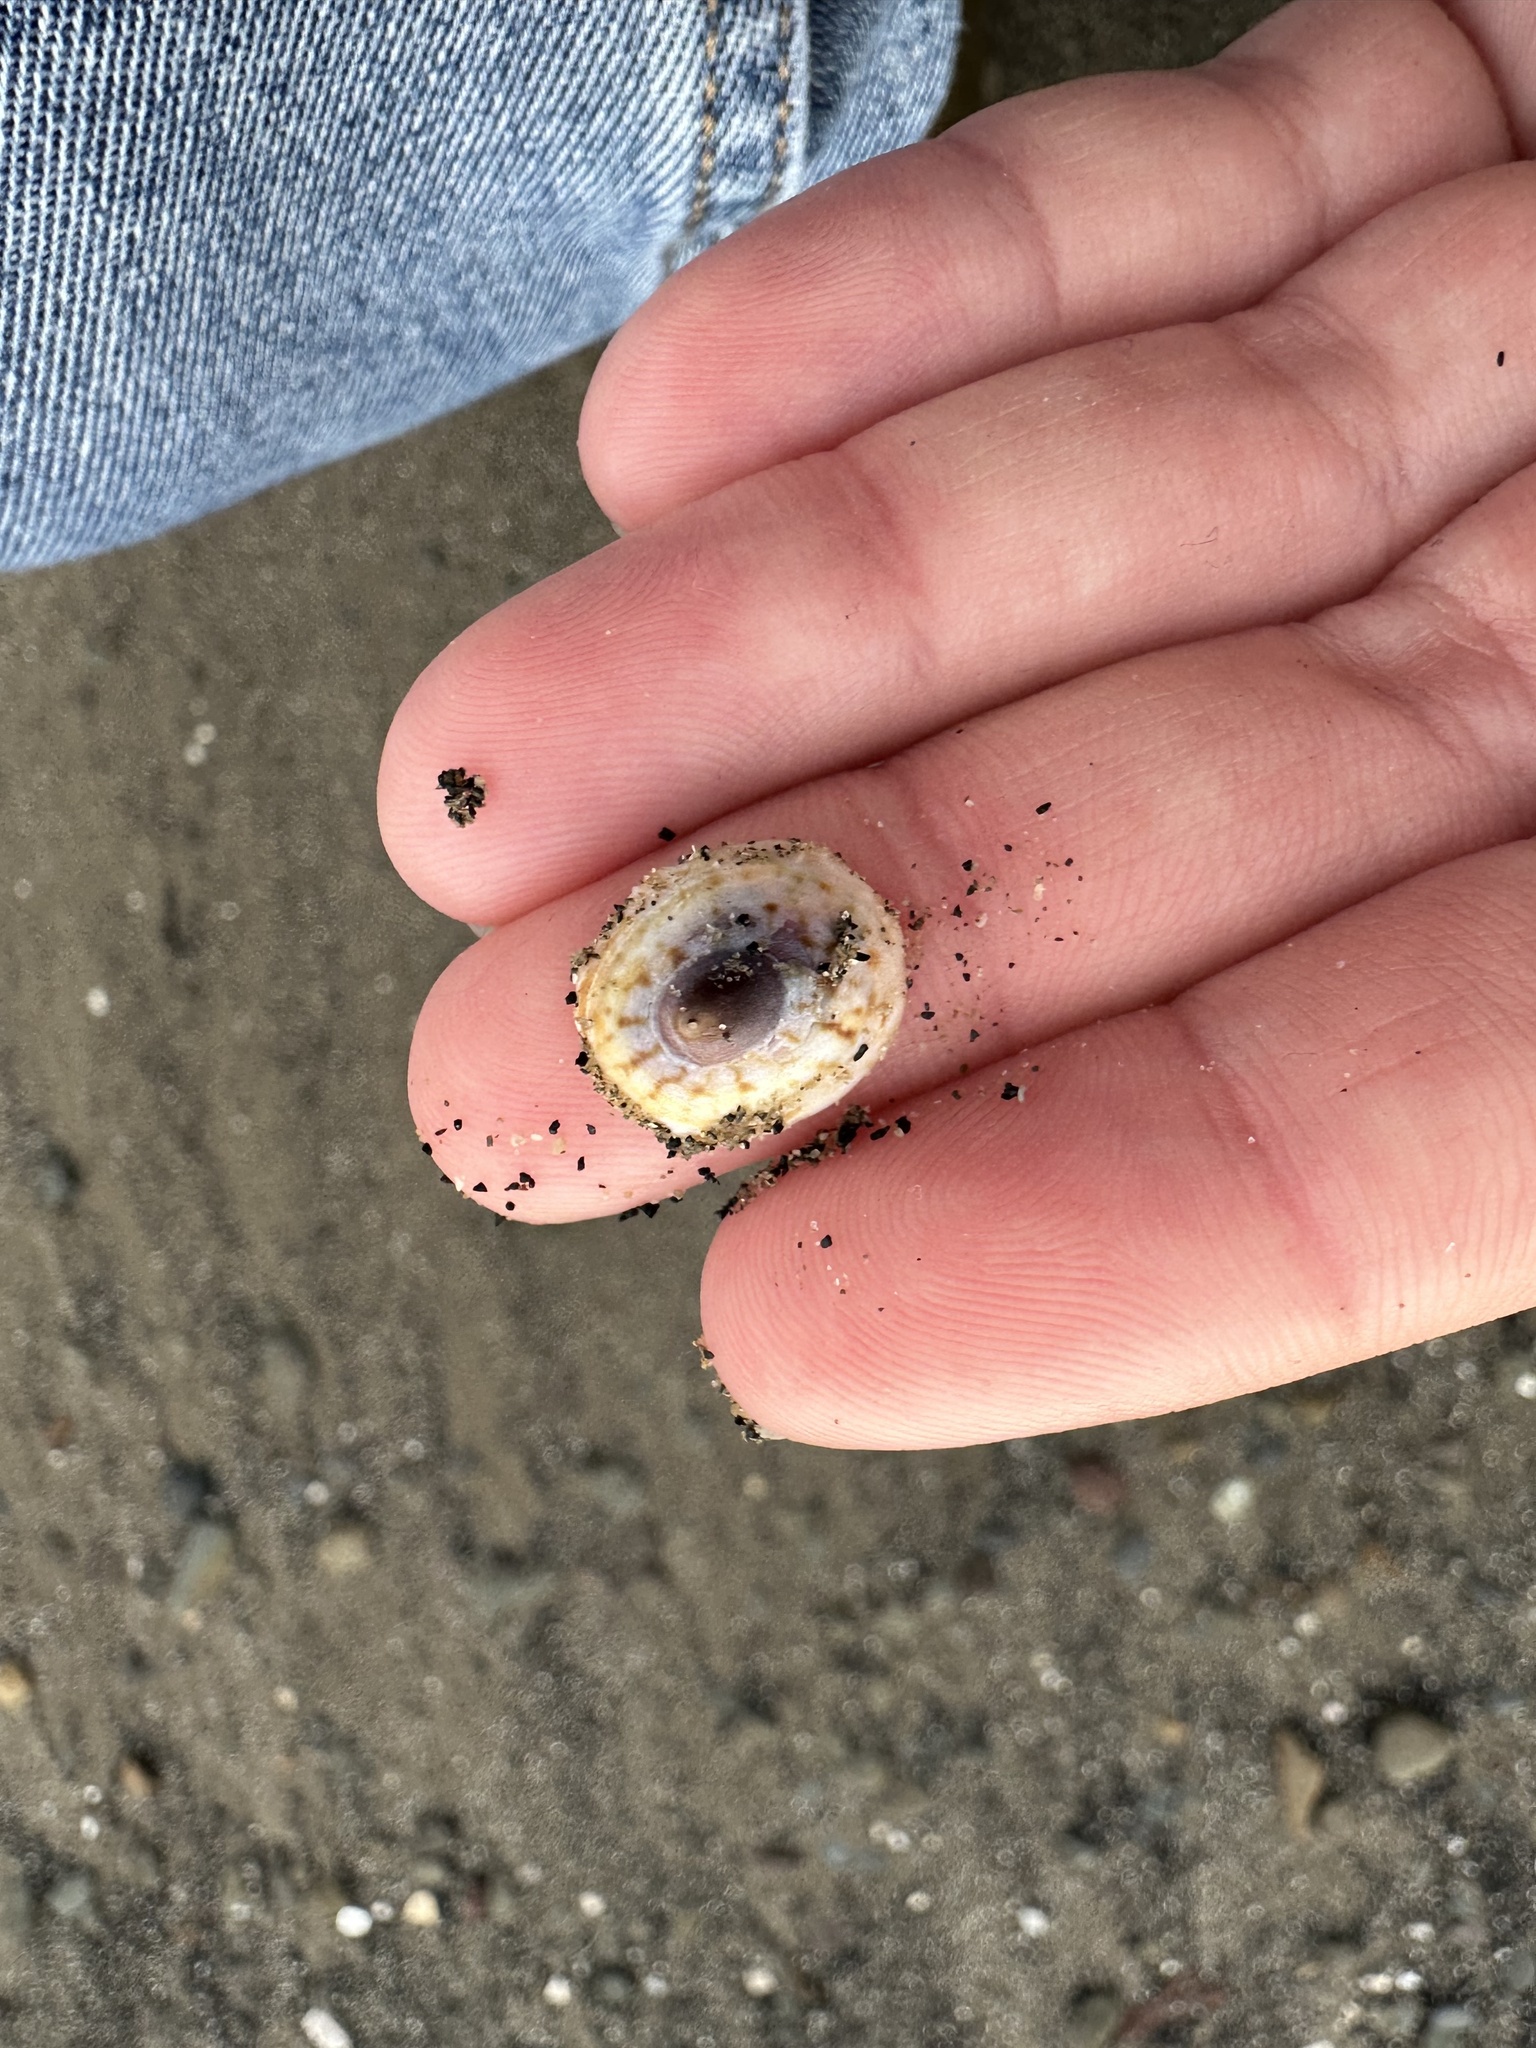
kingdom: Animalia
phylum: Mollusca
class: Gastropoda
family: Lottiidae
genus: Testudinalia
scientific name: Testudinalia testudinalis
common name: Common tortoiseshell limpet
